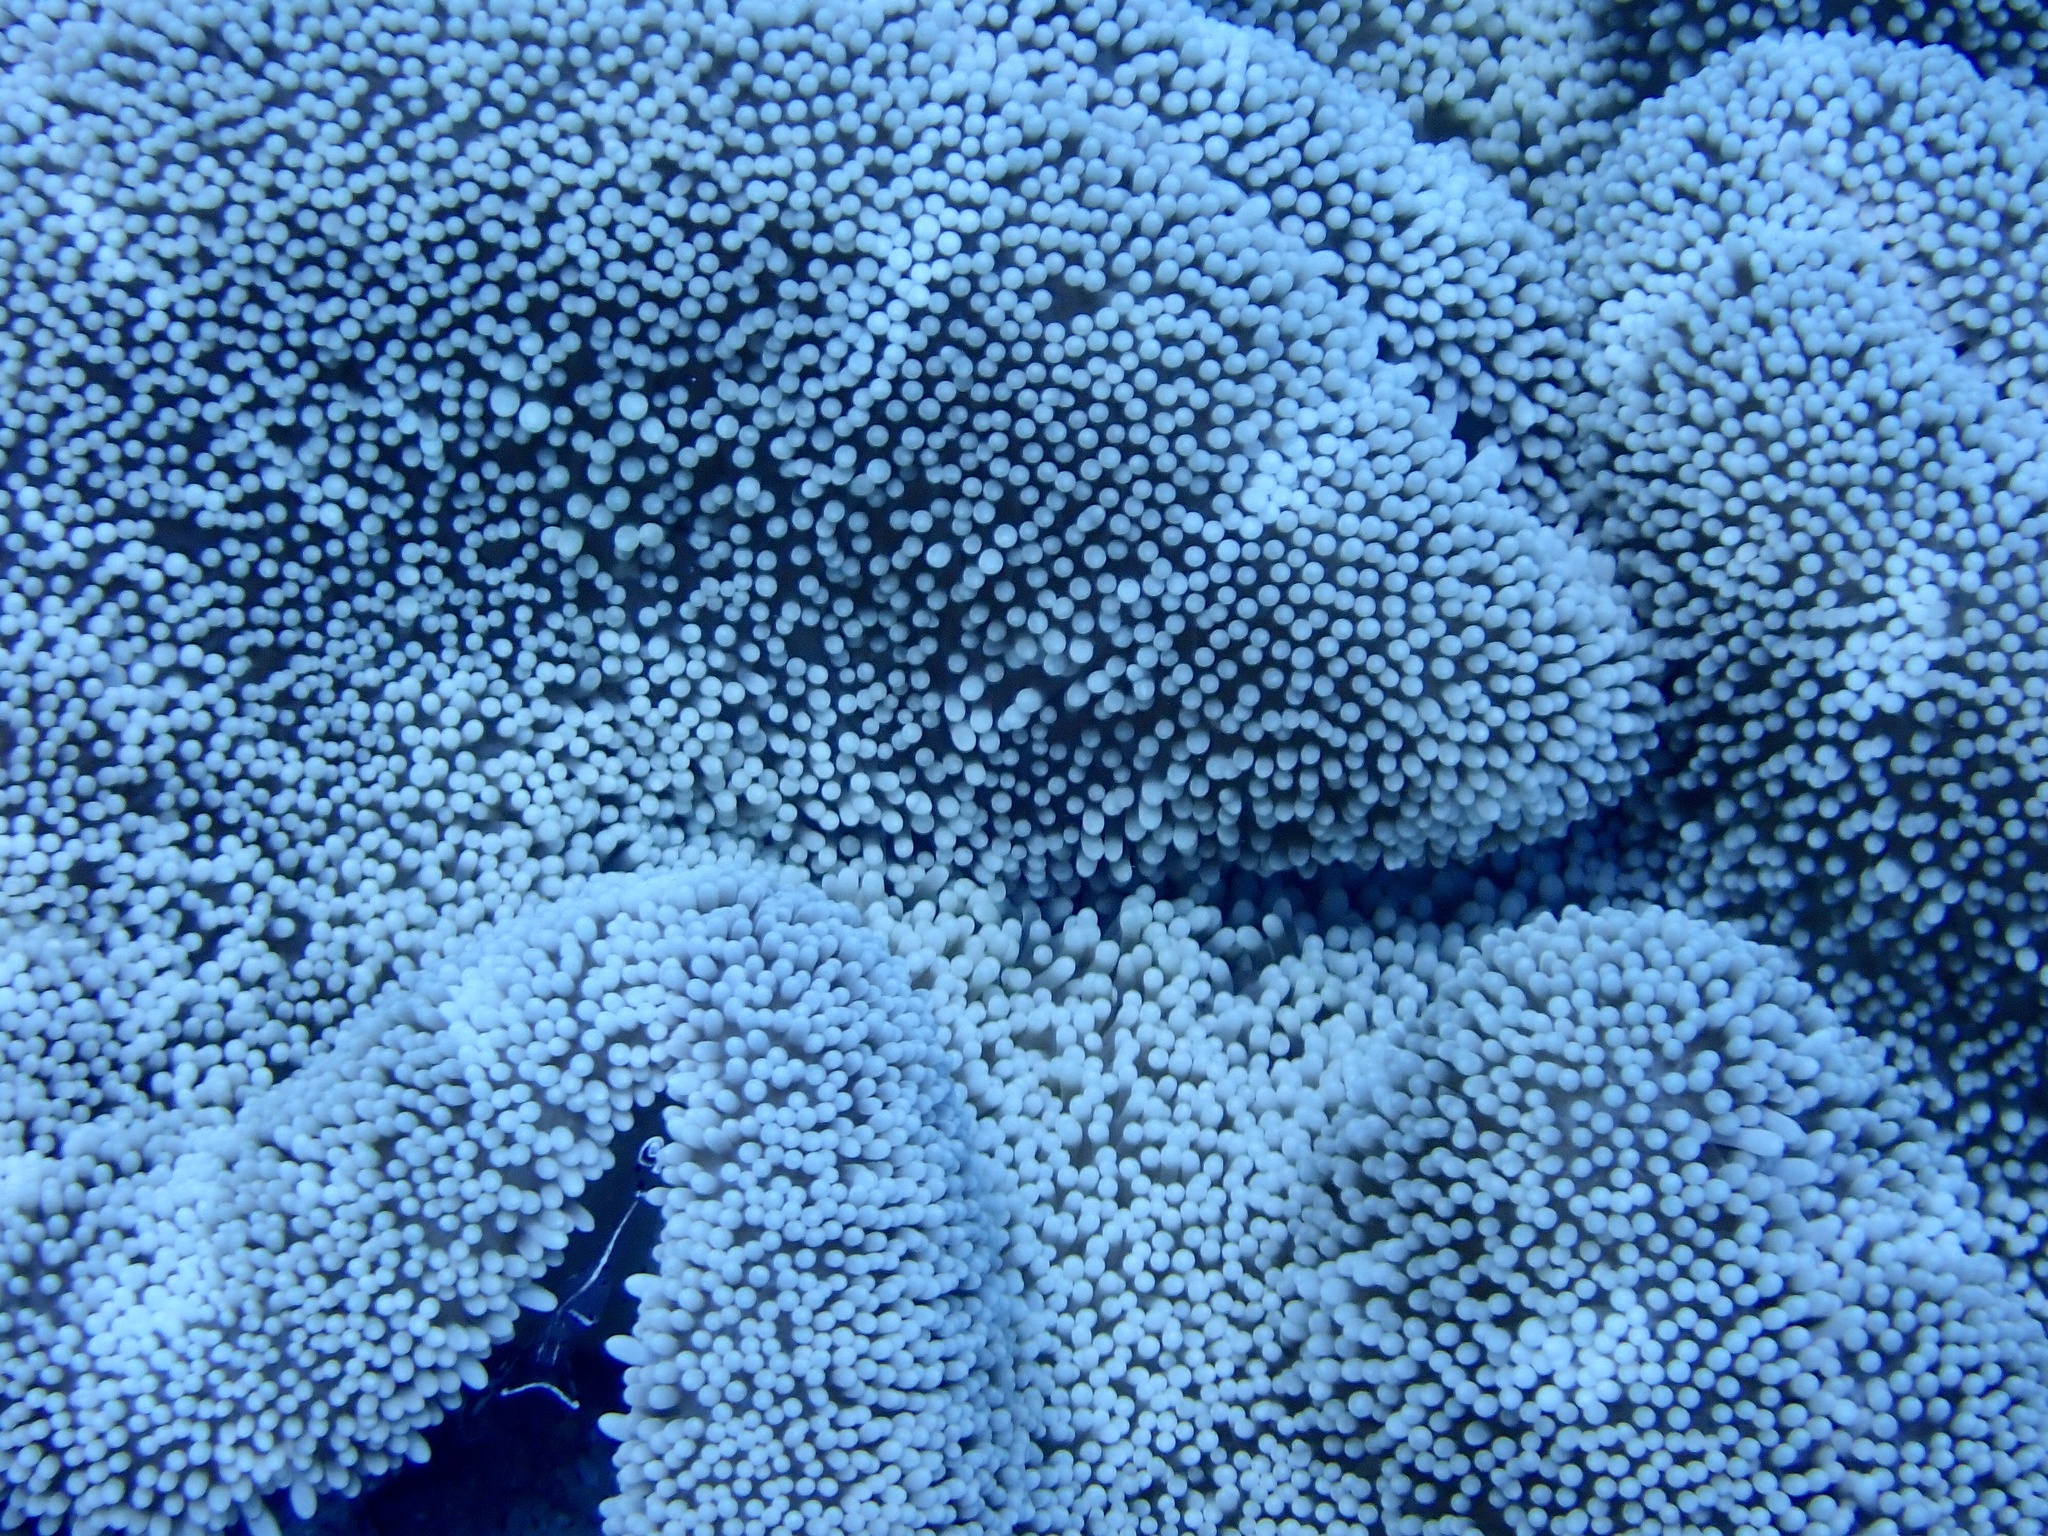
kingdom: Animalia
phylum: Cnidaria
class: Anthozoa
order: Actiniaria
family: Stichodactylidae
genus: Stichodactyla
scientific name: Stichodactyla haddoni
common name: Haddon's sea anemone
